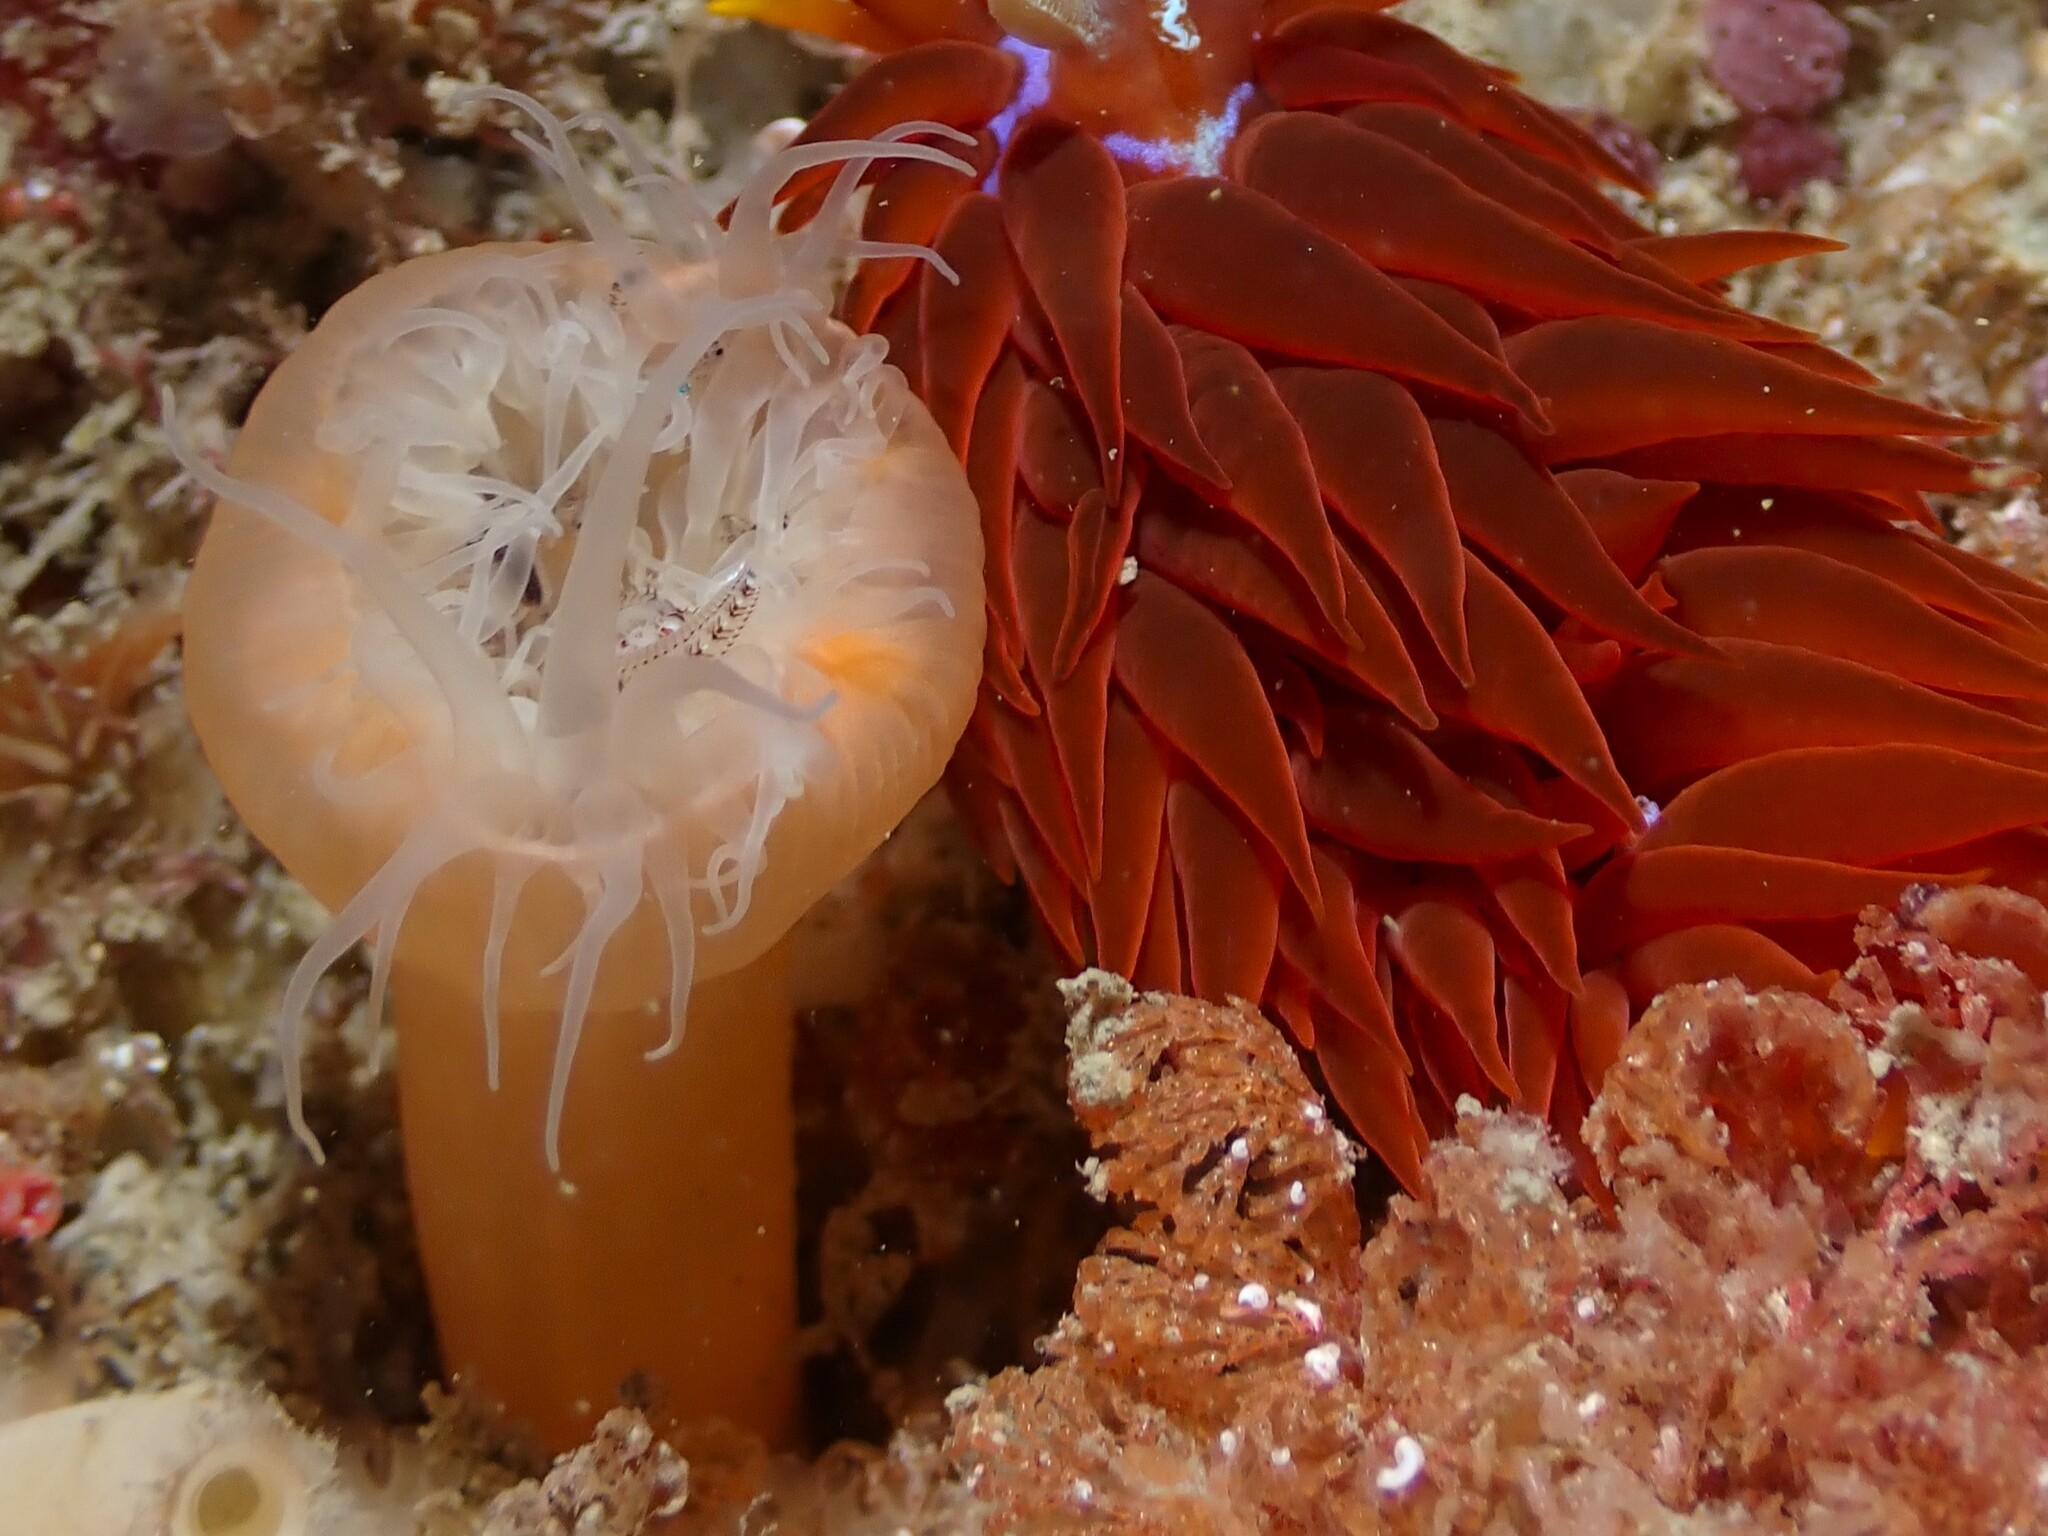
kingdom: Animalia
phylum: Cnidaria
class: Anthozoa
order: Actiniaria
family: Sagartiidae
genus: Habrosanthus
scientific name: Habrosanthus bathamae
